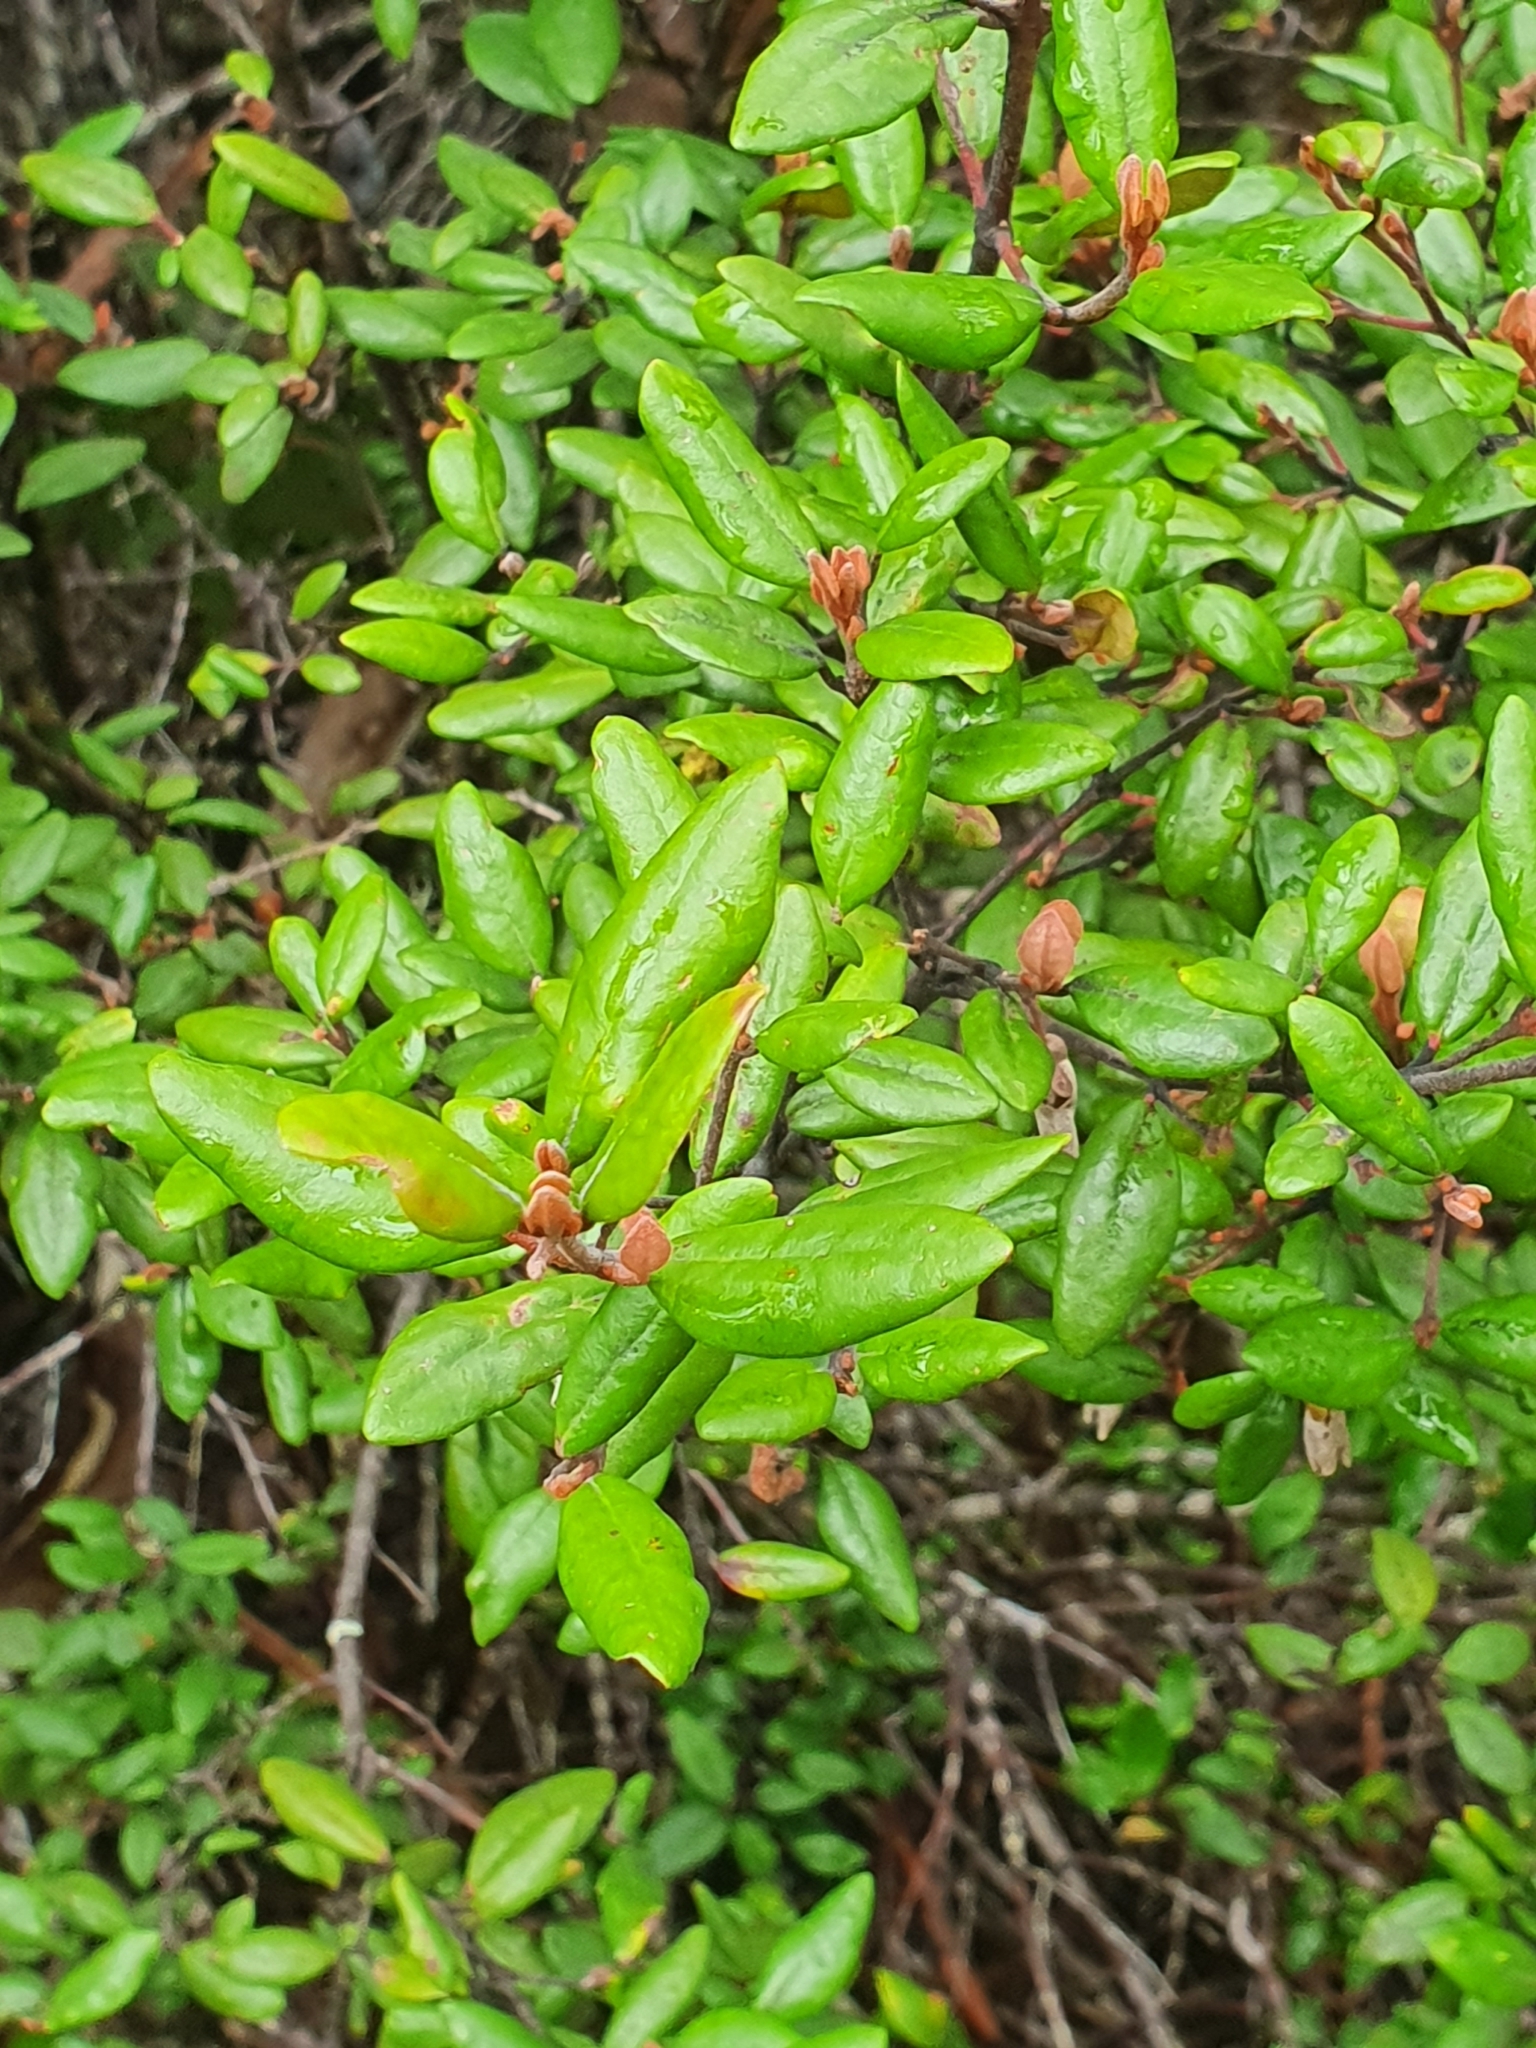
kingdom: Plantae
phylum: Tracheophyta
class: Magnoliopsida
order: Sapindales
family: Rutaceae
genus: Correa
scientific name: Correa lawrenceana
